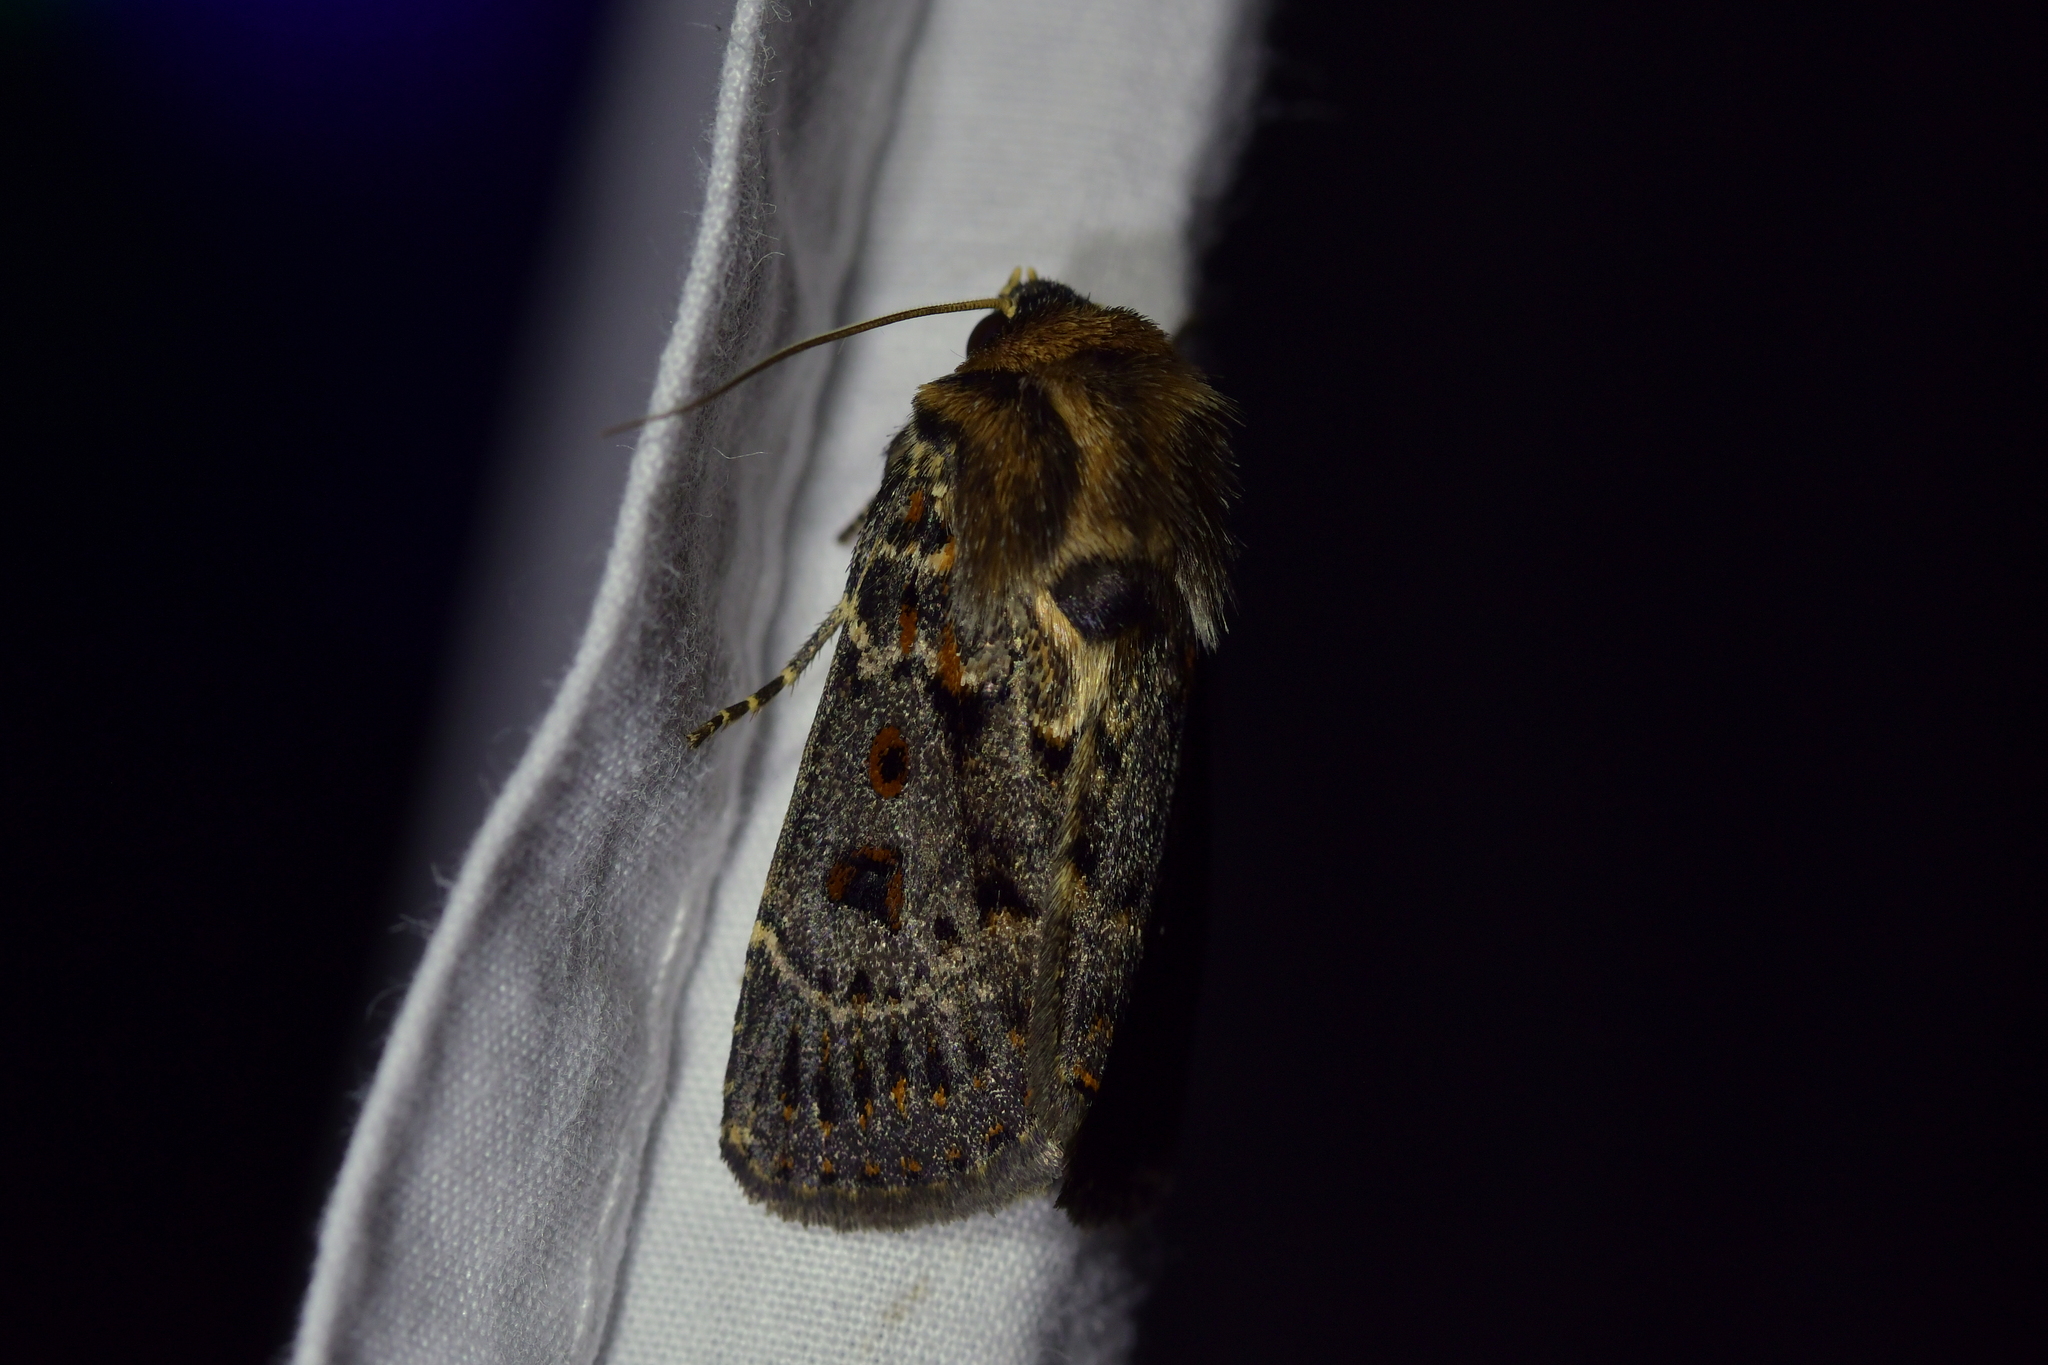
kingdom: Animalia
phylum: Arthropoda
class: Insecta
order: Lepidoptera
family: Noctuidae
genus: Proteuxoa
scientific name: Proteuxoa sanguinipuncta
